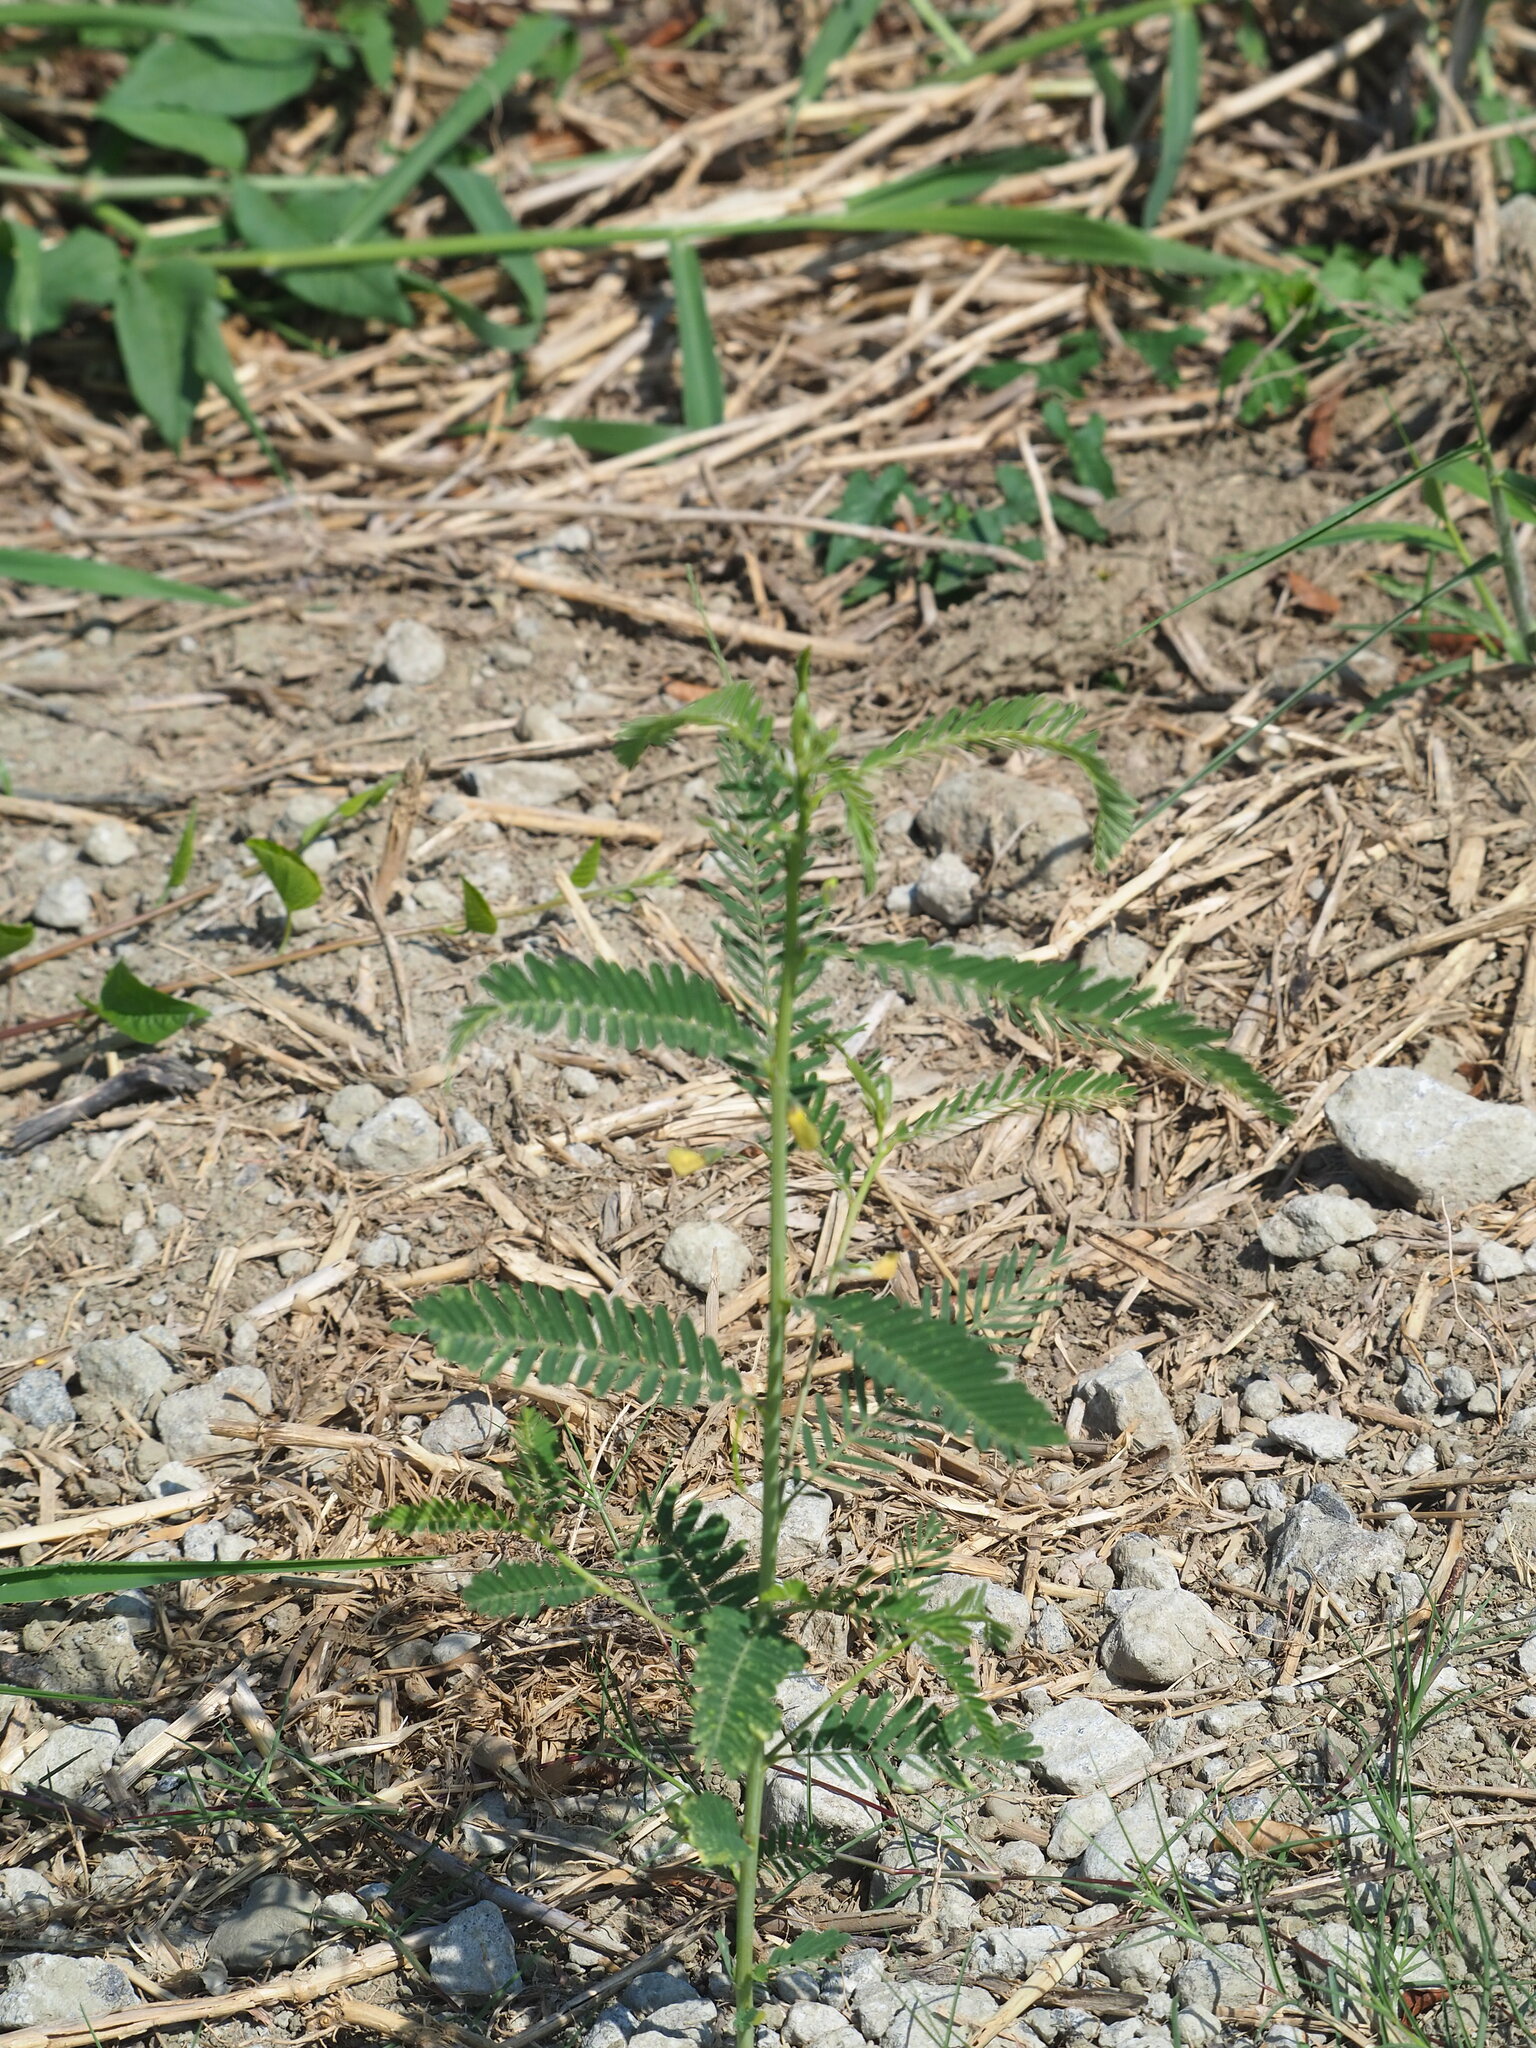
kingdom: Plantae
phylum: Tracheophyta
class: Magnoliopsida
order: Fabales
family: Fabaceae
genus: Sesbania
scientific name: Sesbania cannabina
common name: Canicha
